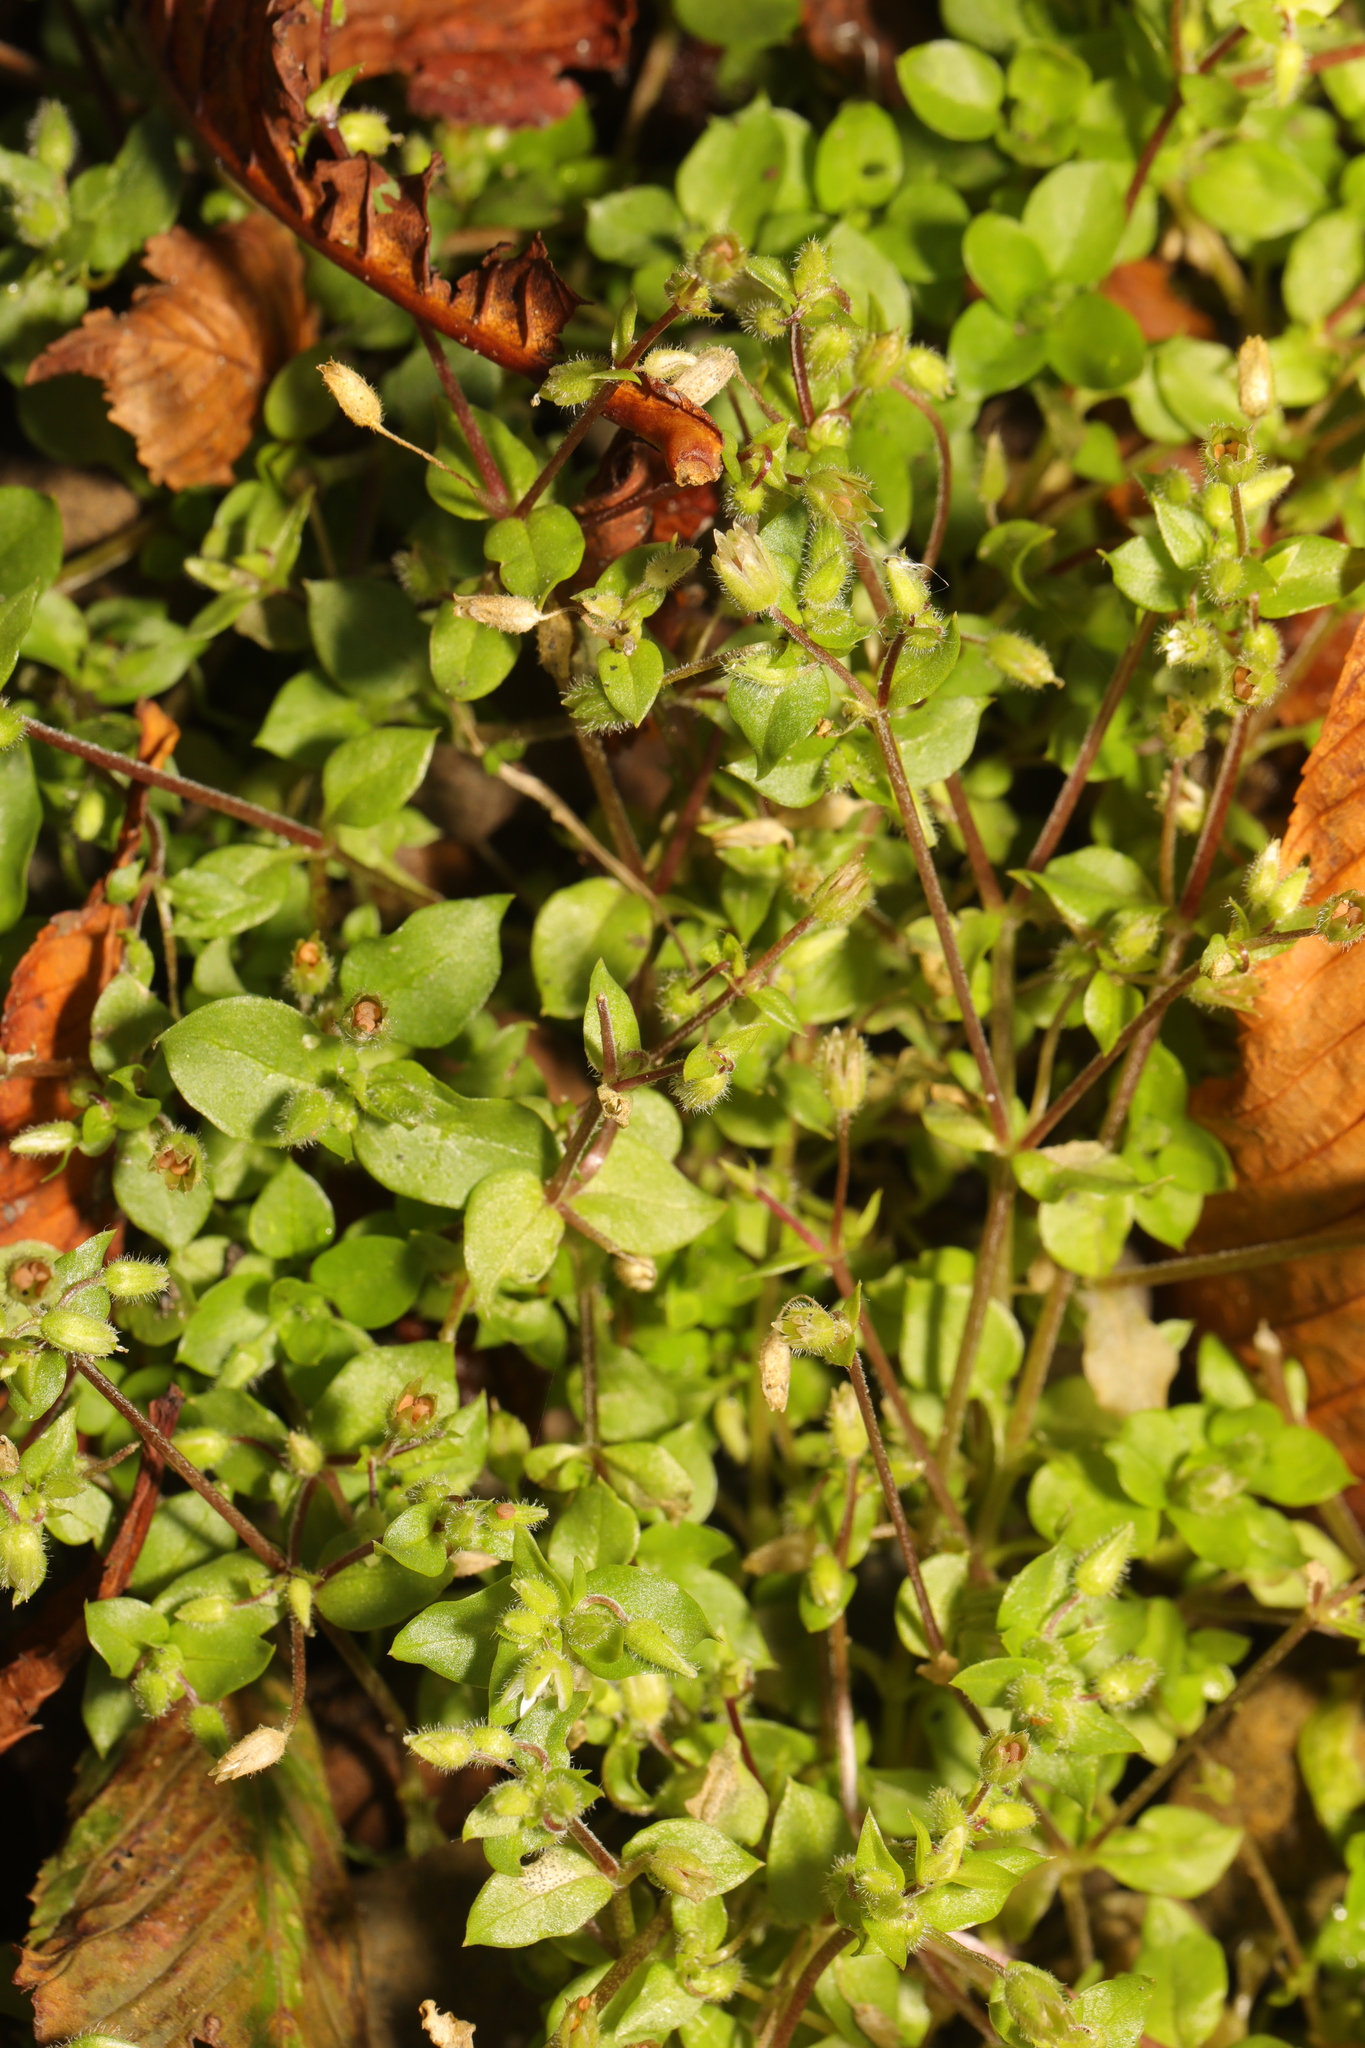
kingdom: Plantae
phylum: Tracheophyta
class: Magnoliopsida
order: Caryophyllales
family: Caryophyllaceae
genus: Stellaria
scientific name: Stellaria media
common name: Common chickweed
